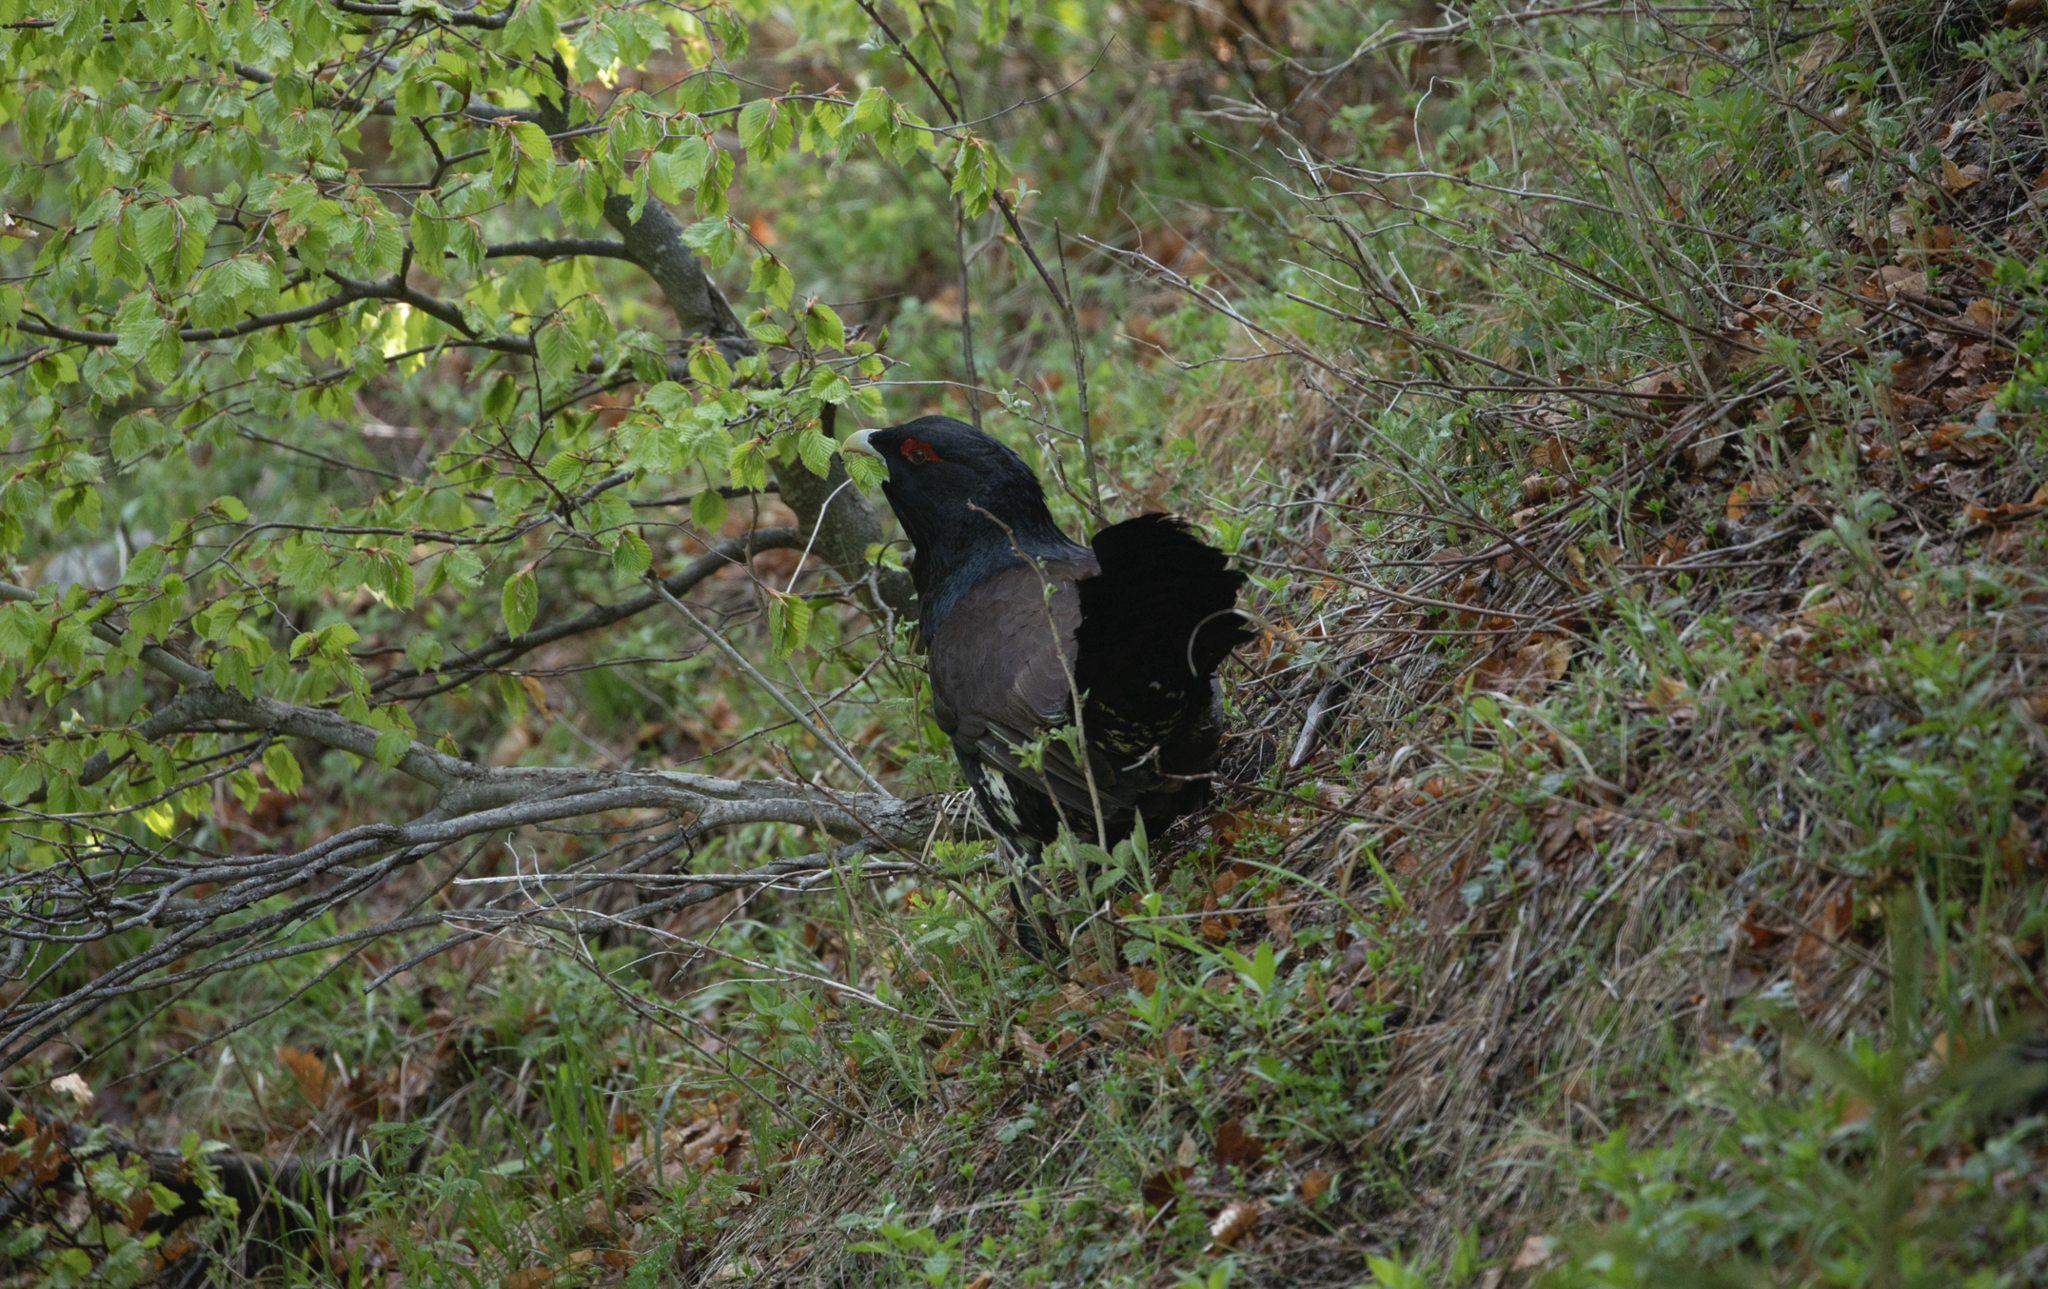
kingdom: Animalia
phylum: Chordata
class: Aves
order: Galliformes
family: Phasianidae
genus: Tetrao
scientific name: Tetrao urogallus
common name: Western capercaillie
